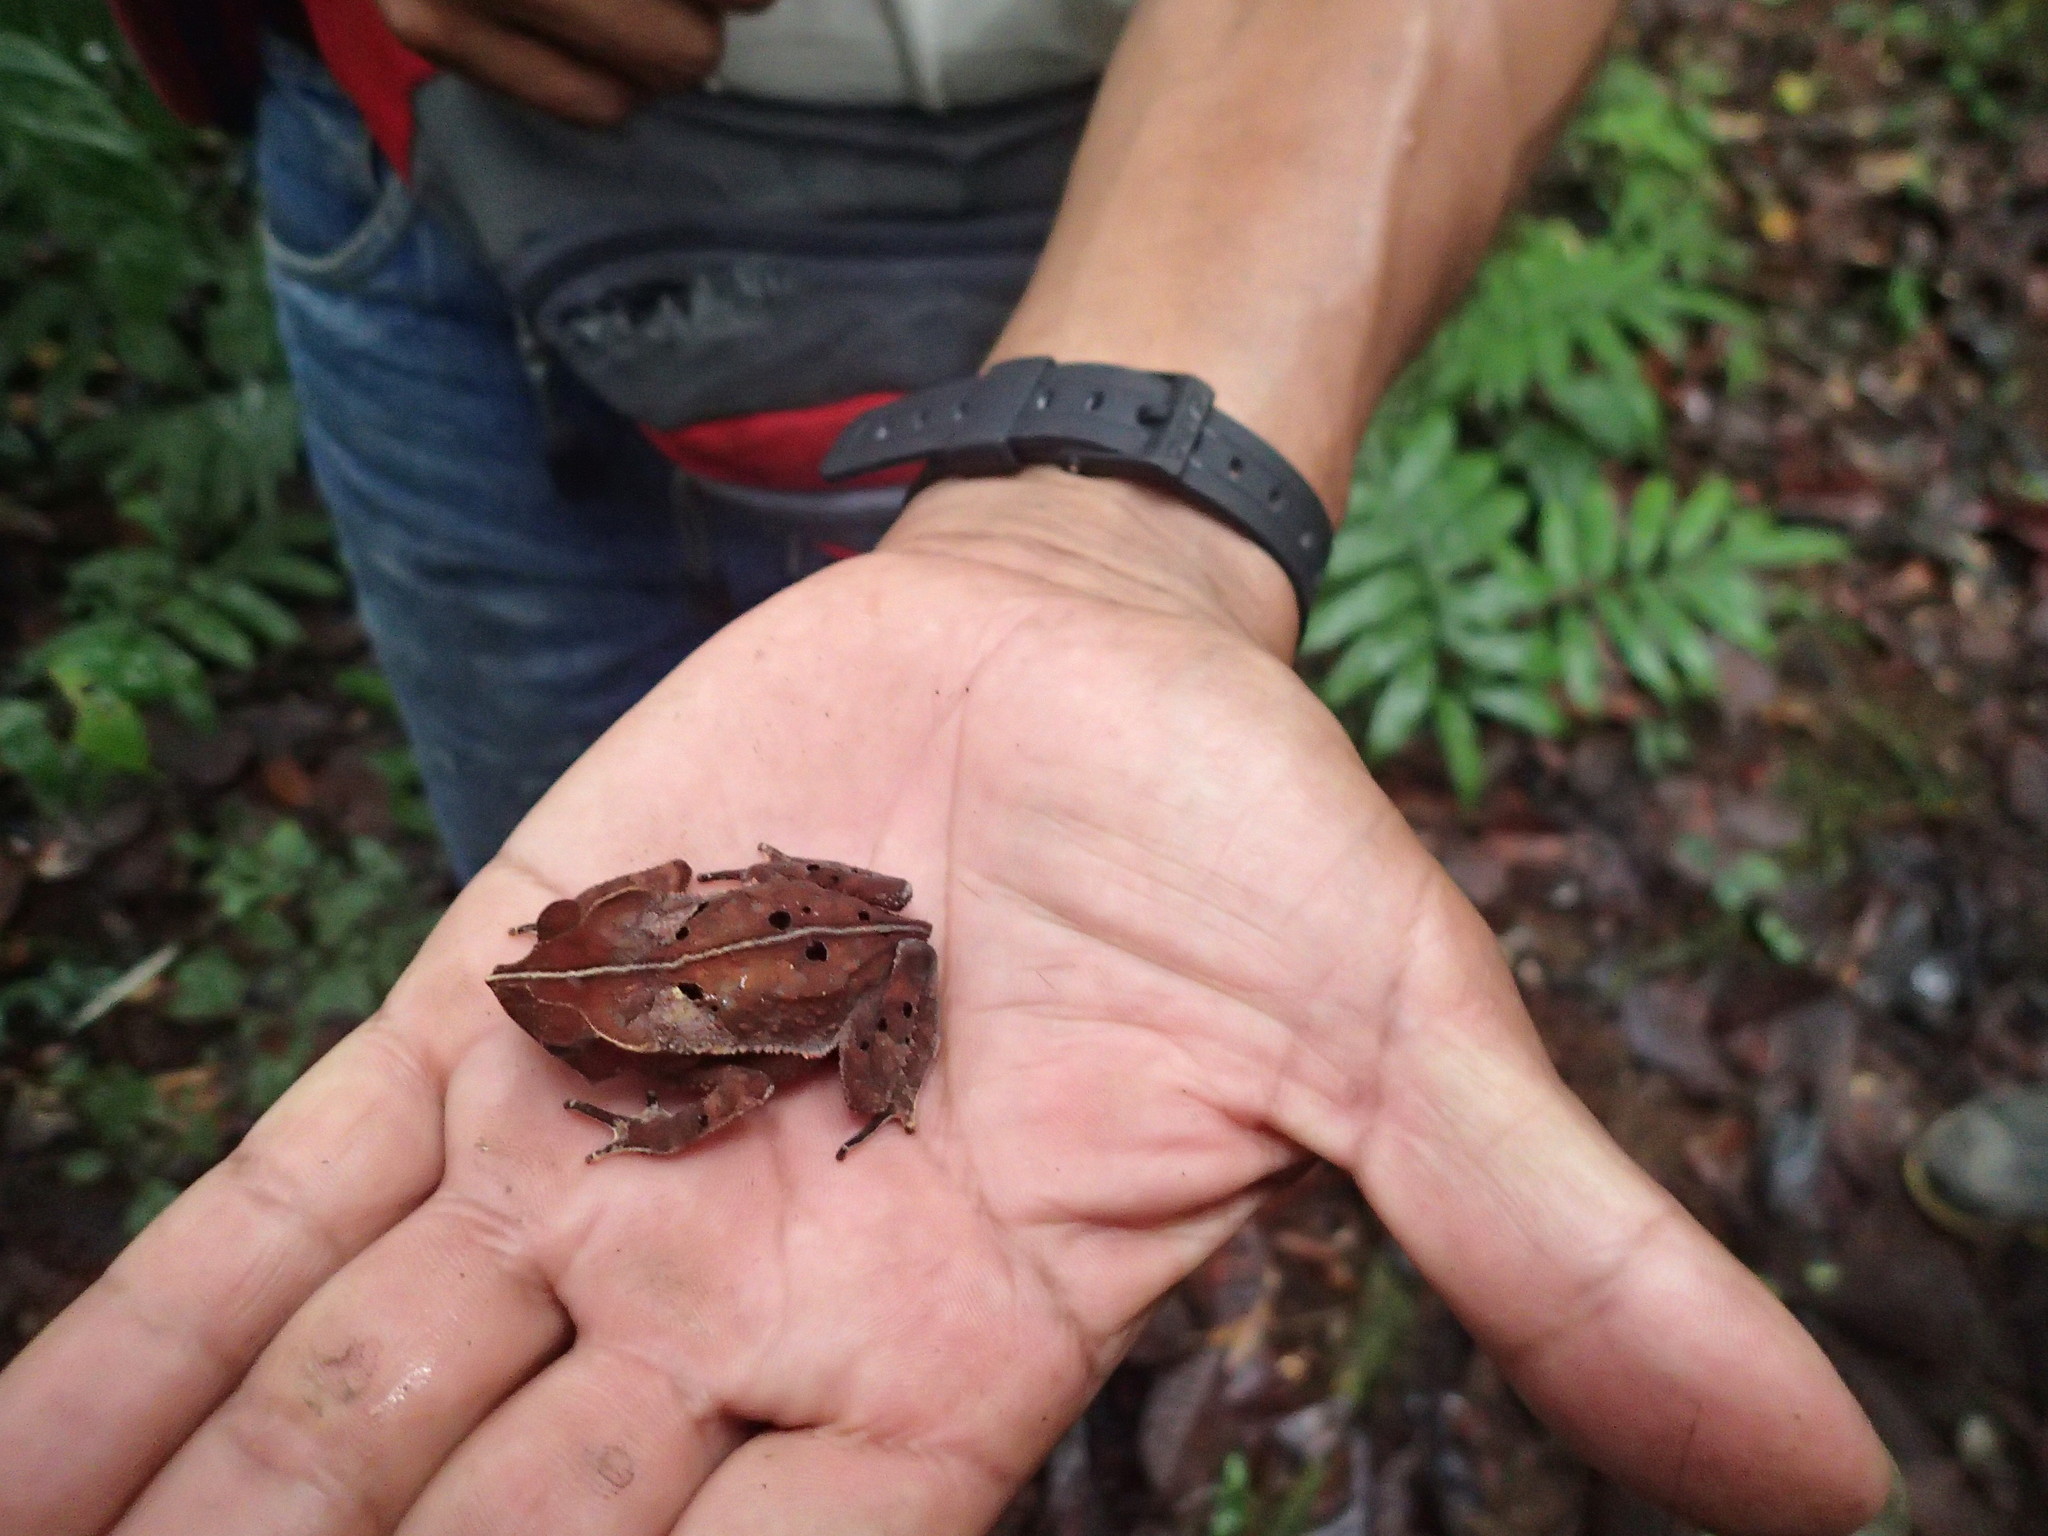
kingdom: Animalia
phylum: Chordata
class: Amphibia
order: Anura
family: Bufonidae
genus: Rhinella
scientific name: Rhinella roqueana
